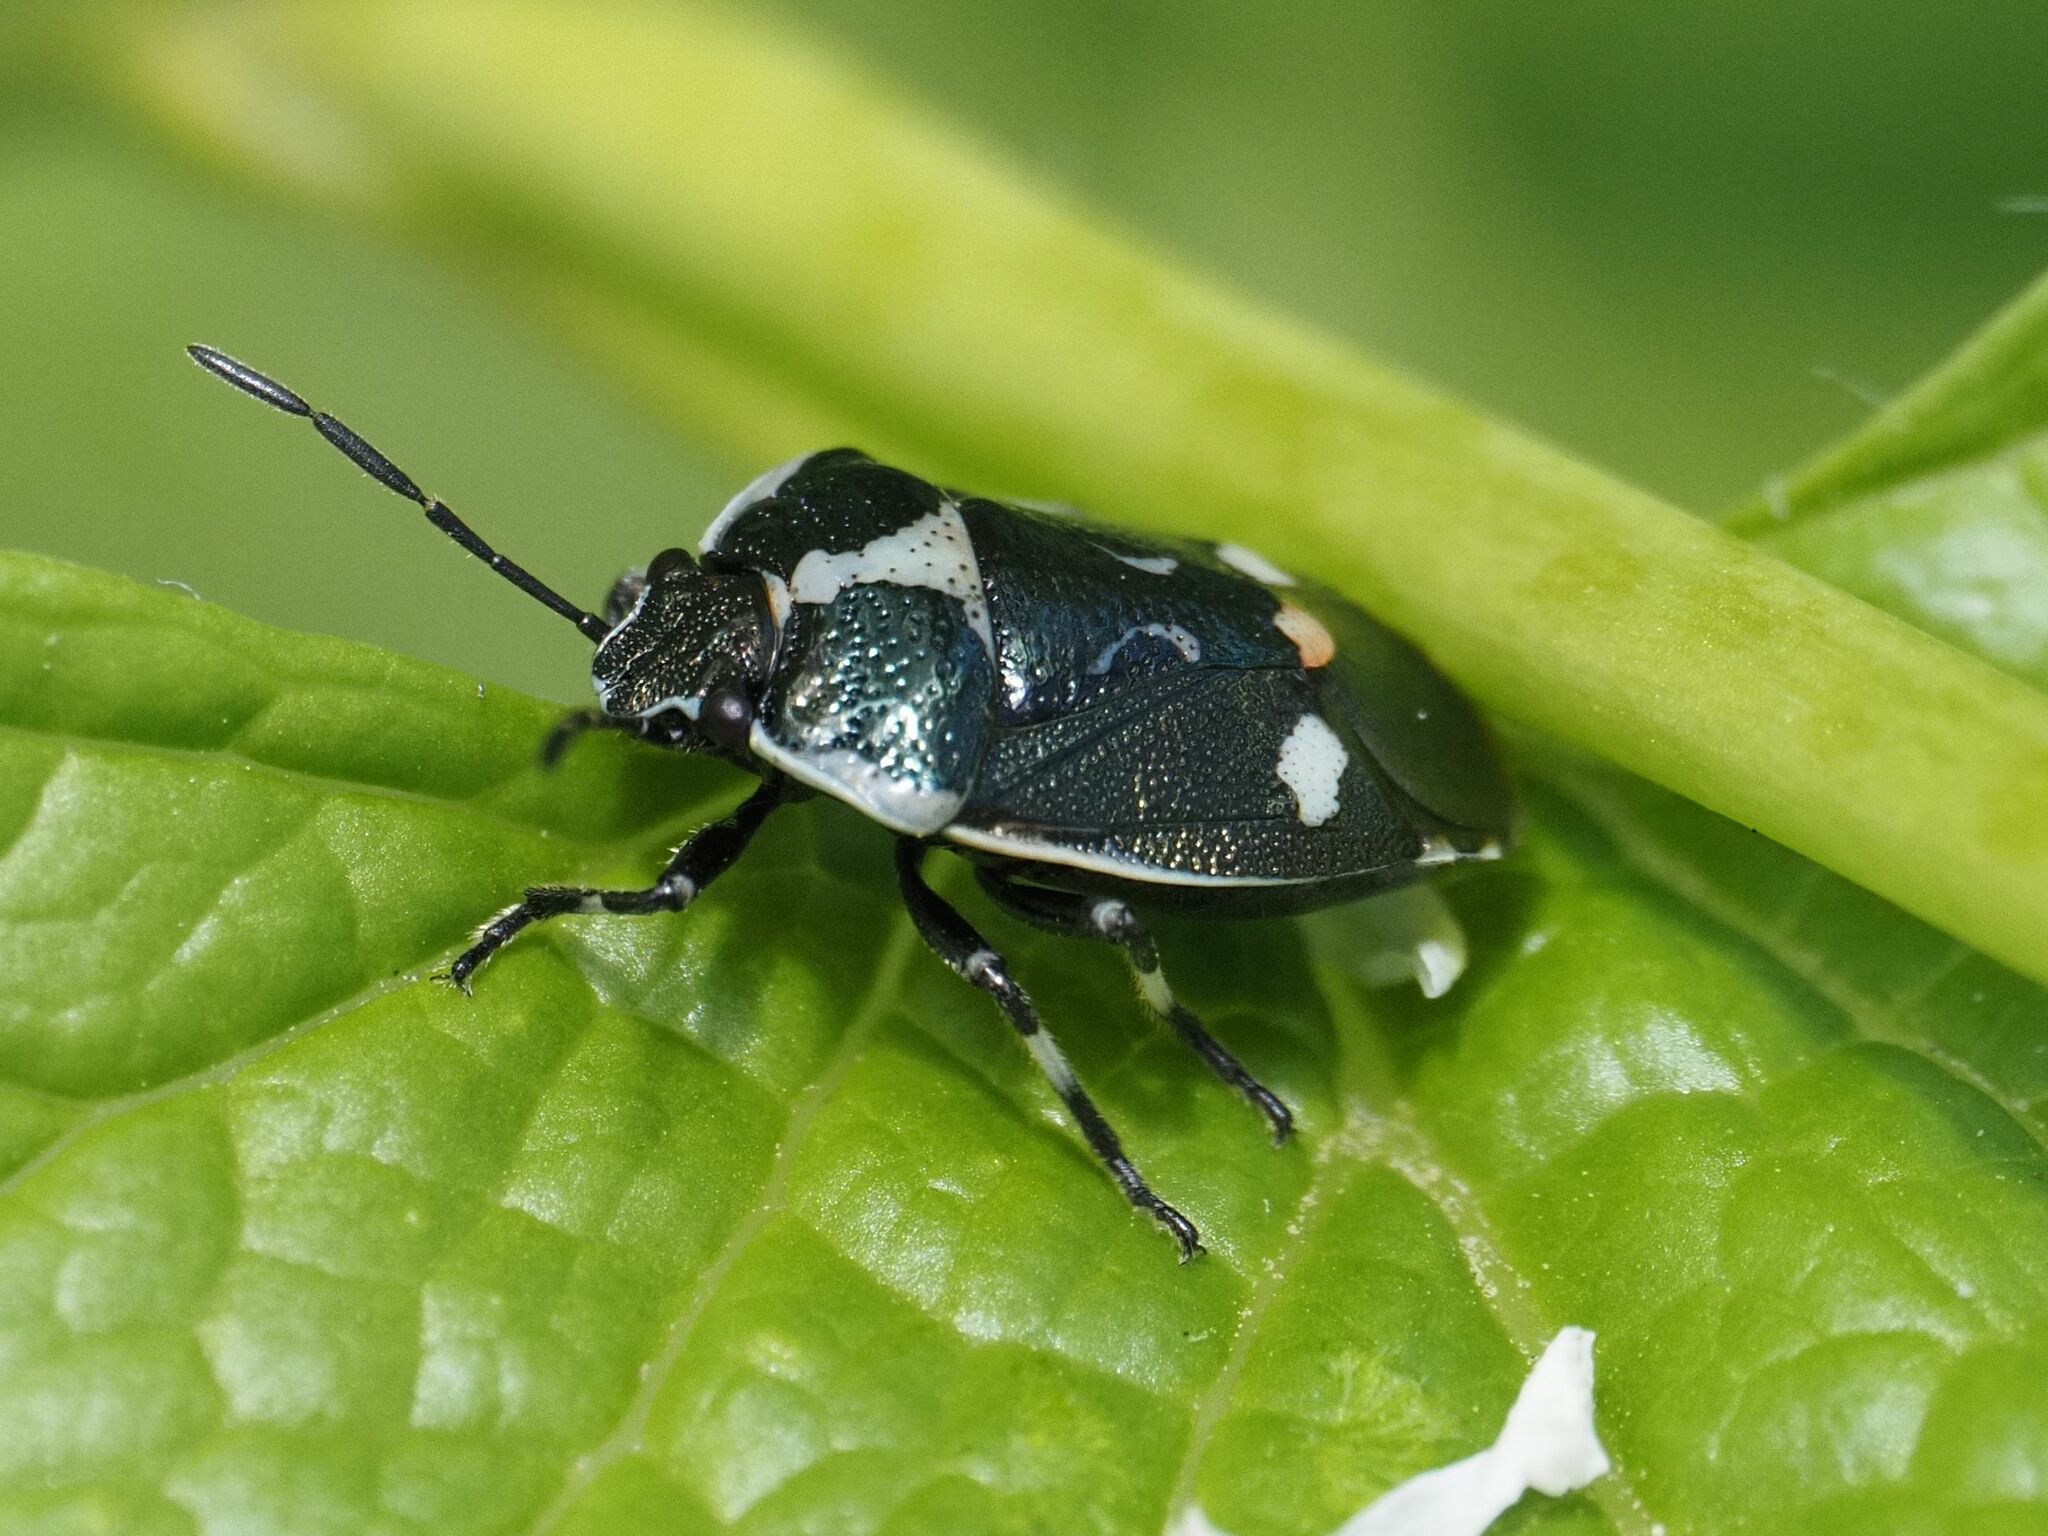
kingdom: Animalia
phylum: Arthropoda
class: Insecta
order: Hemiptera
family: Pentatomidae
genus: Eurydema
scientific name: Eurydema oleracea
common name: Cabbage bug
